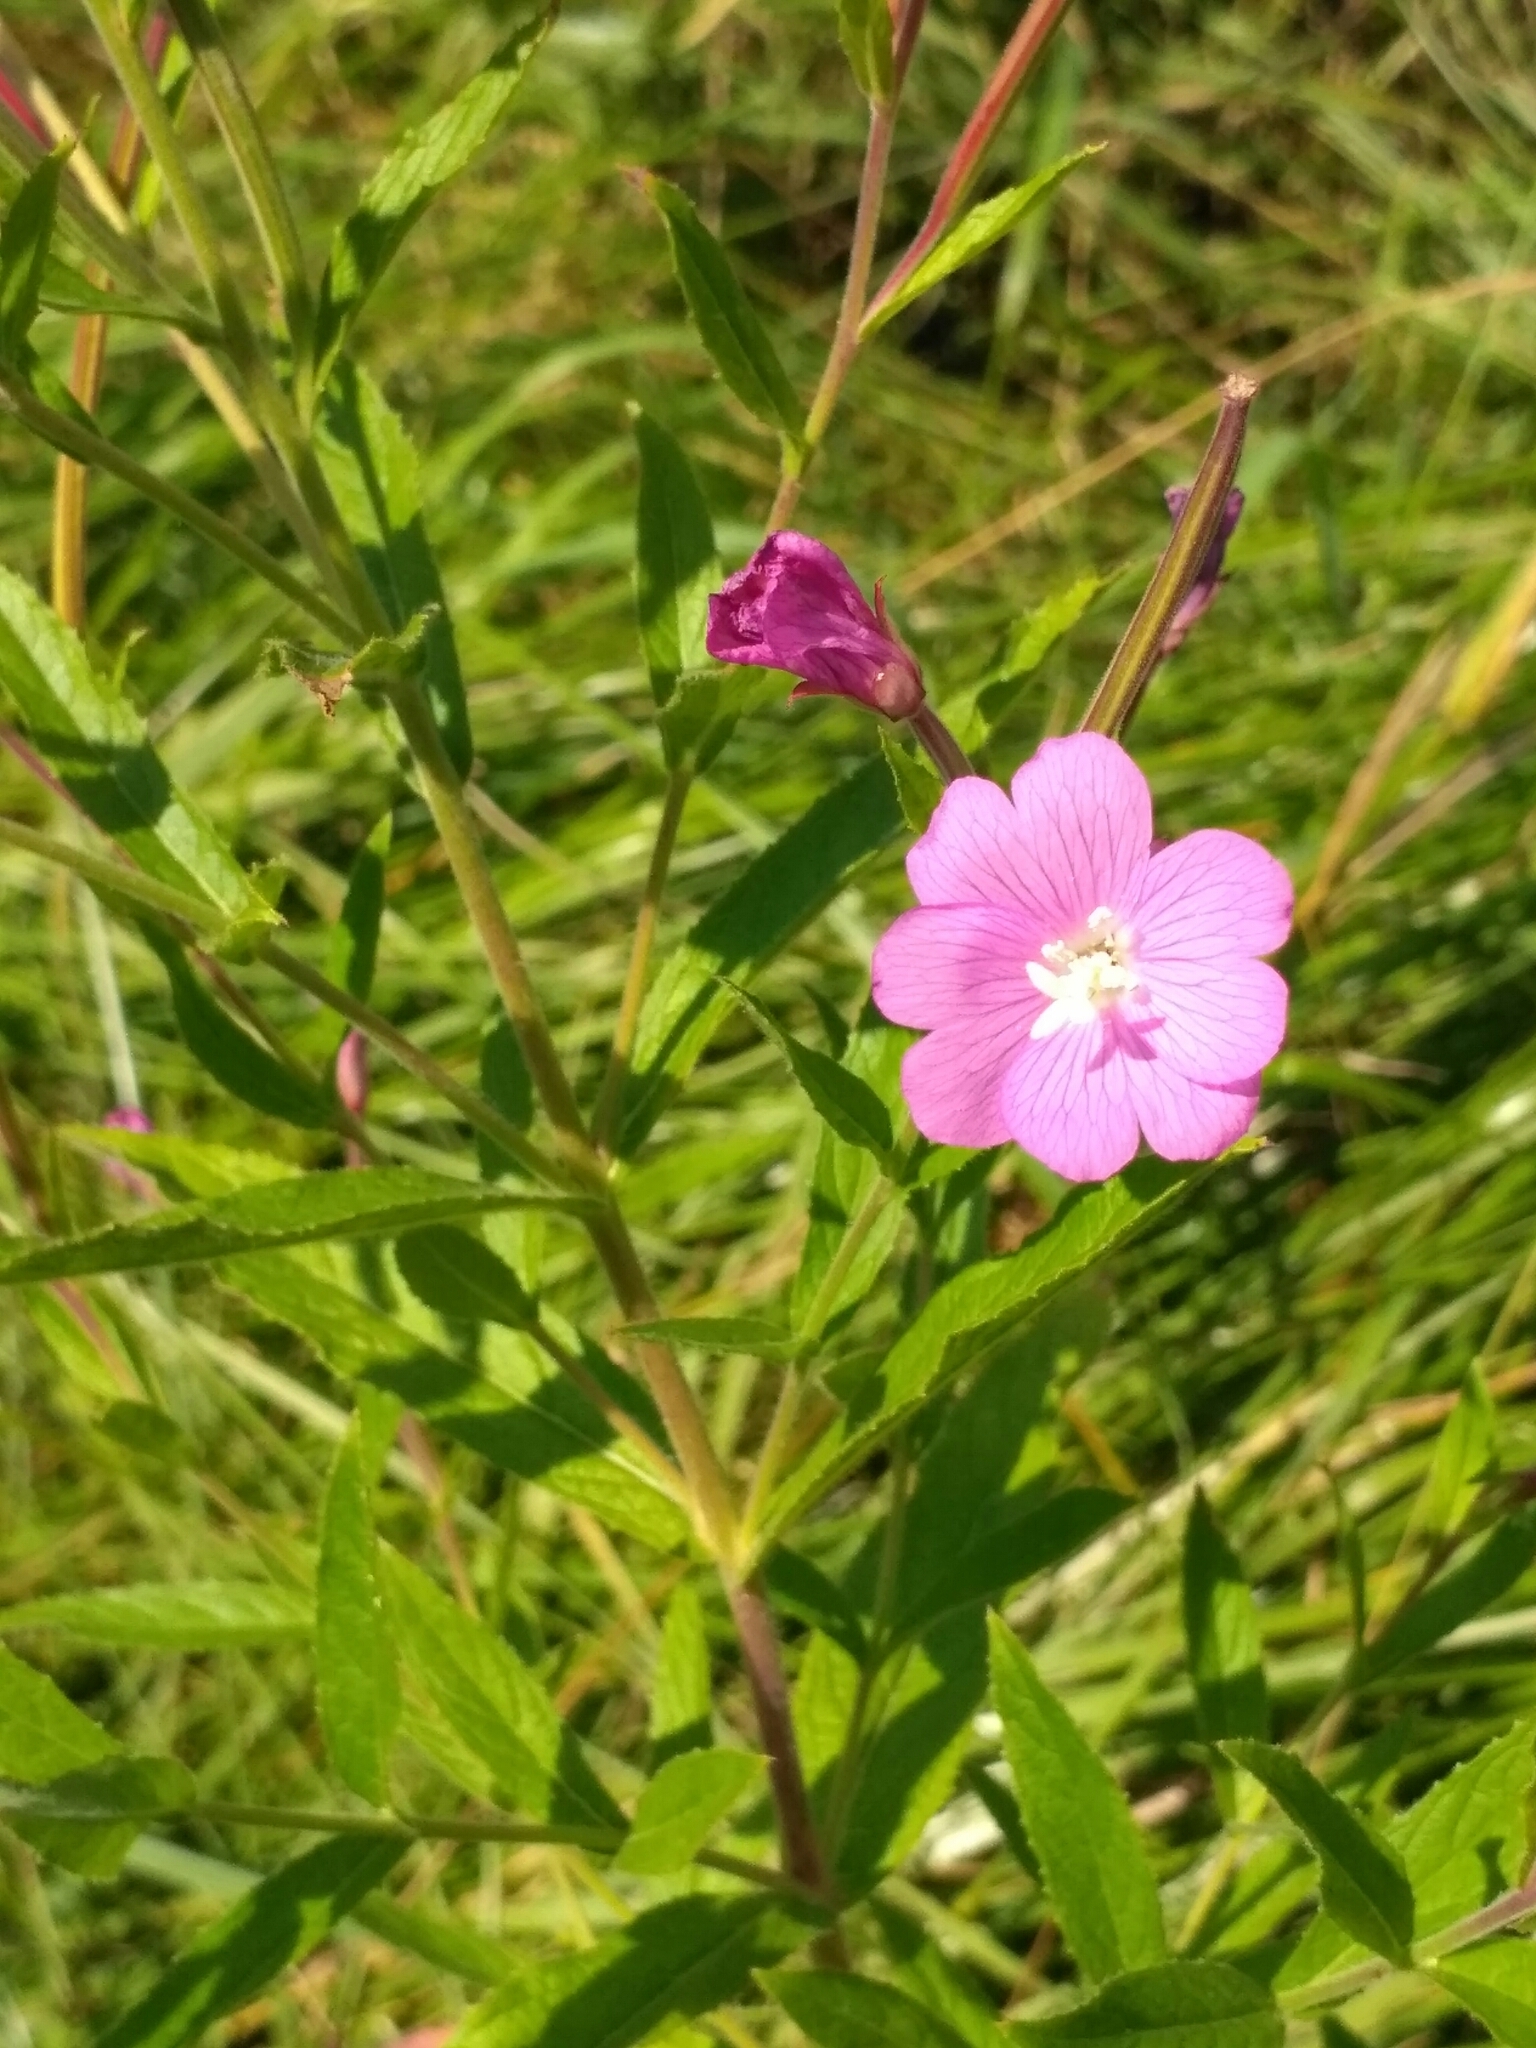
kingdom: Plantae
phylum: Tracheophyta
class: Magnoliopsida
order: Myrtales
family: Onagraceae
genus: Epilobium
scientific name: Epilobium hirsutum
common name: Great willowherb
